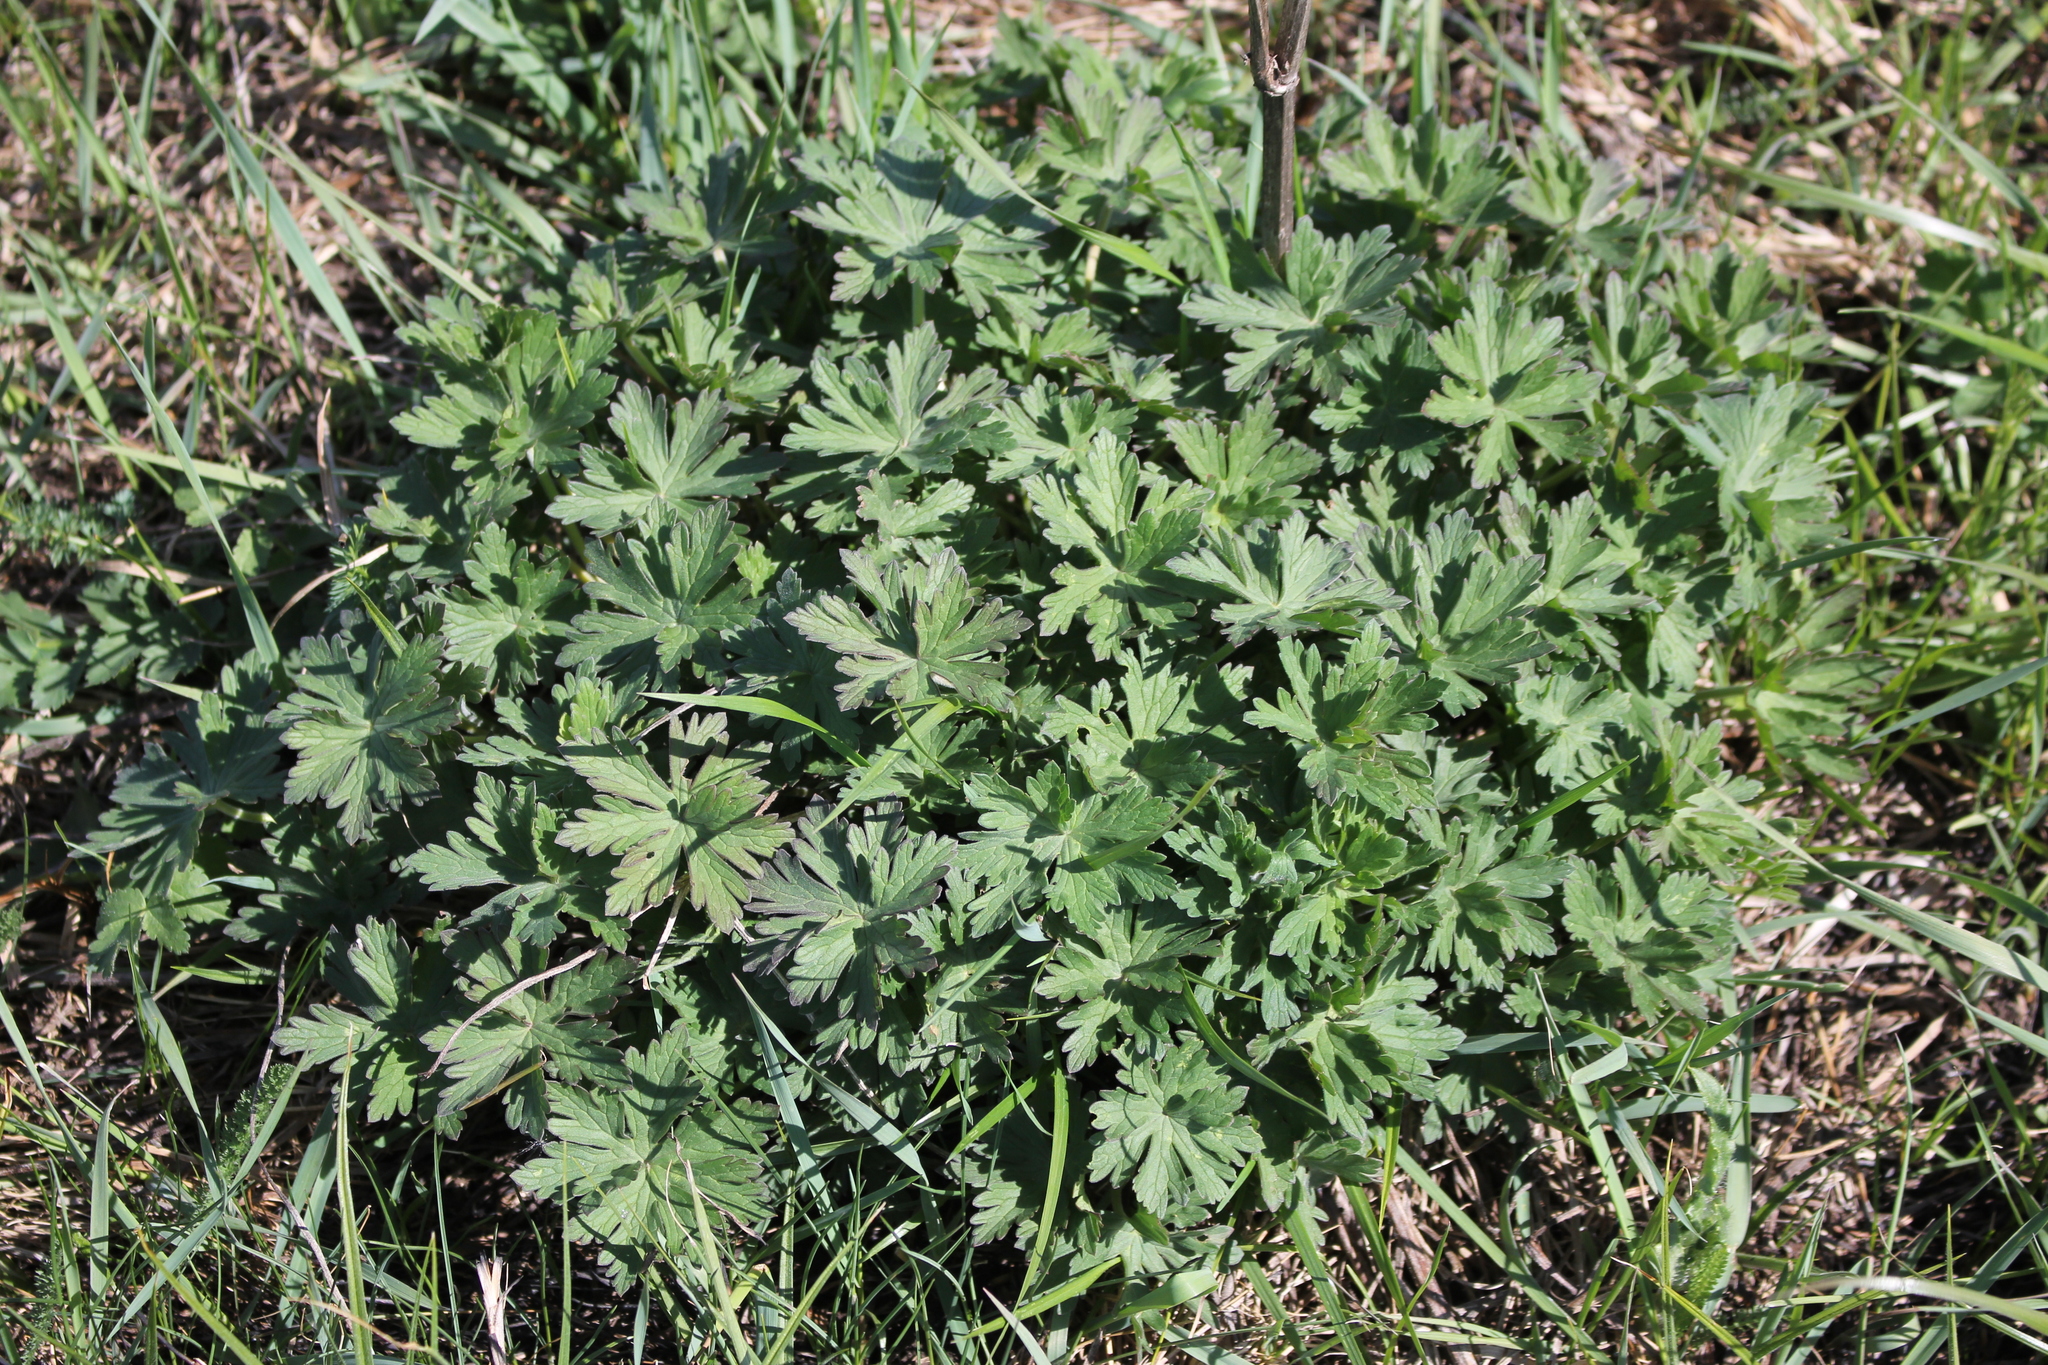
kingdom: Plantae
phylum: Tracheophyta
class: Magnoliopsida
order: Geraniales
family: Geraniaceae
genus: Geranium
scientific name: Geranium pratense
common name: Meadow crane's-bill
